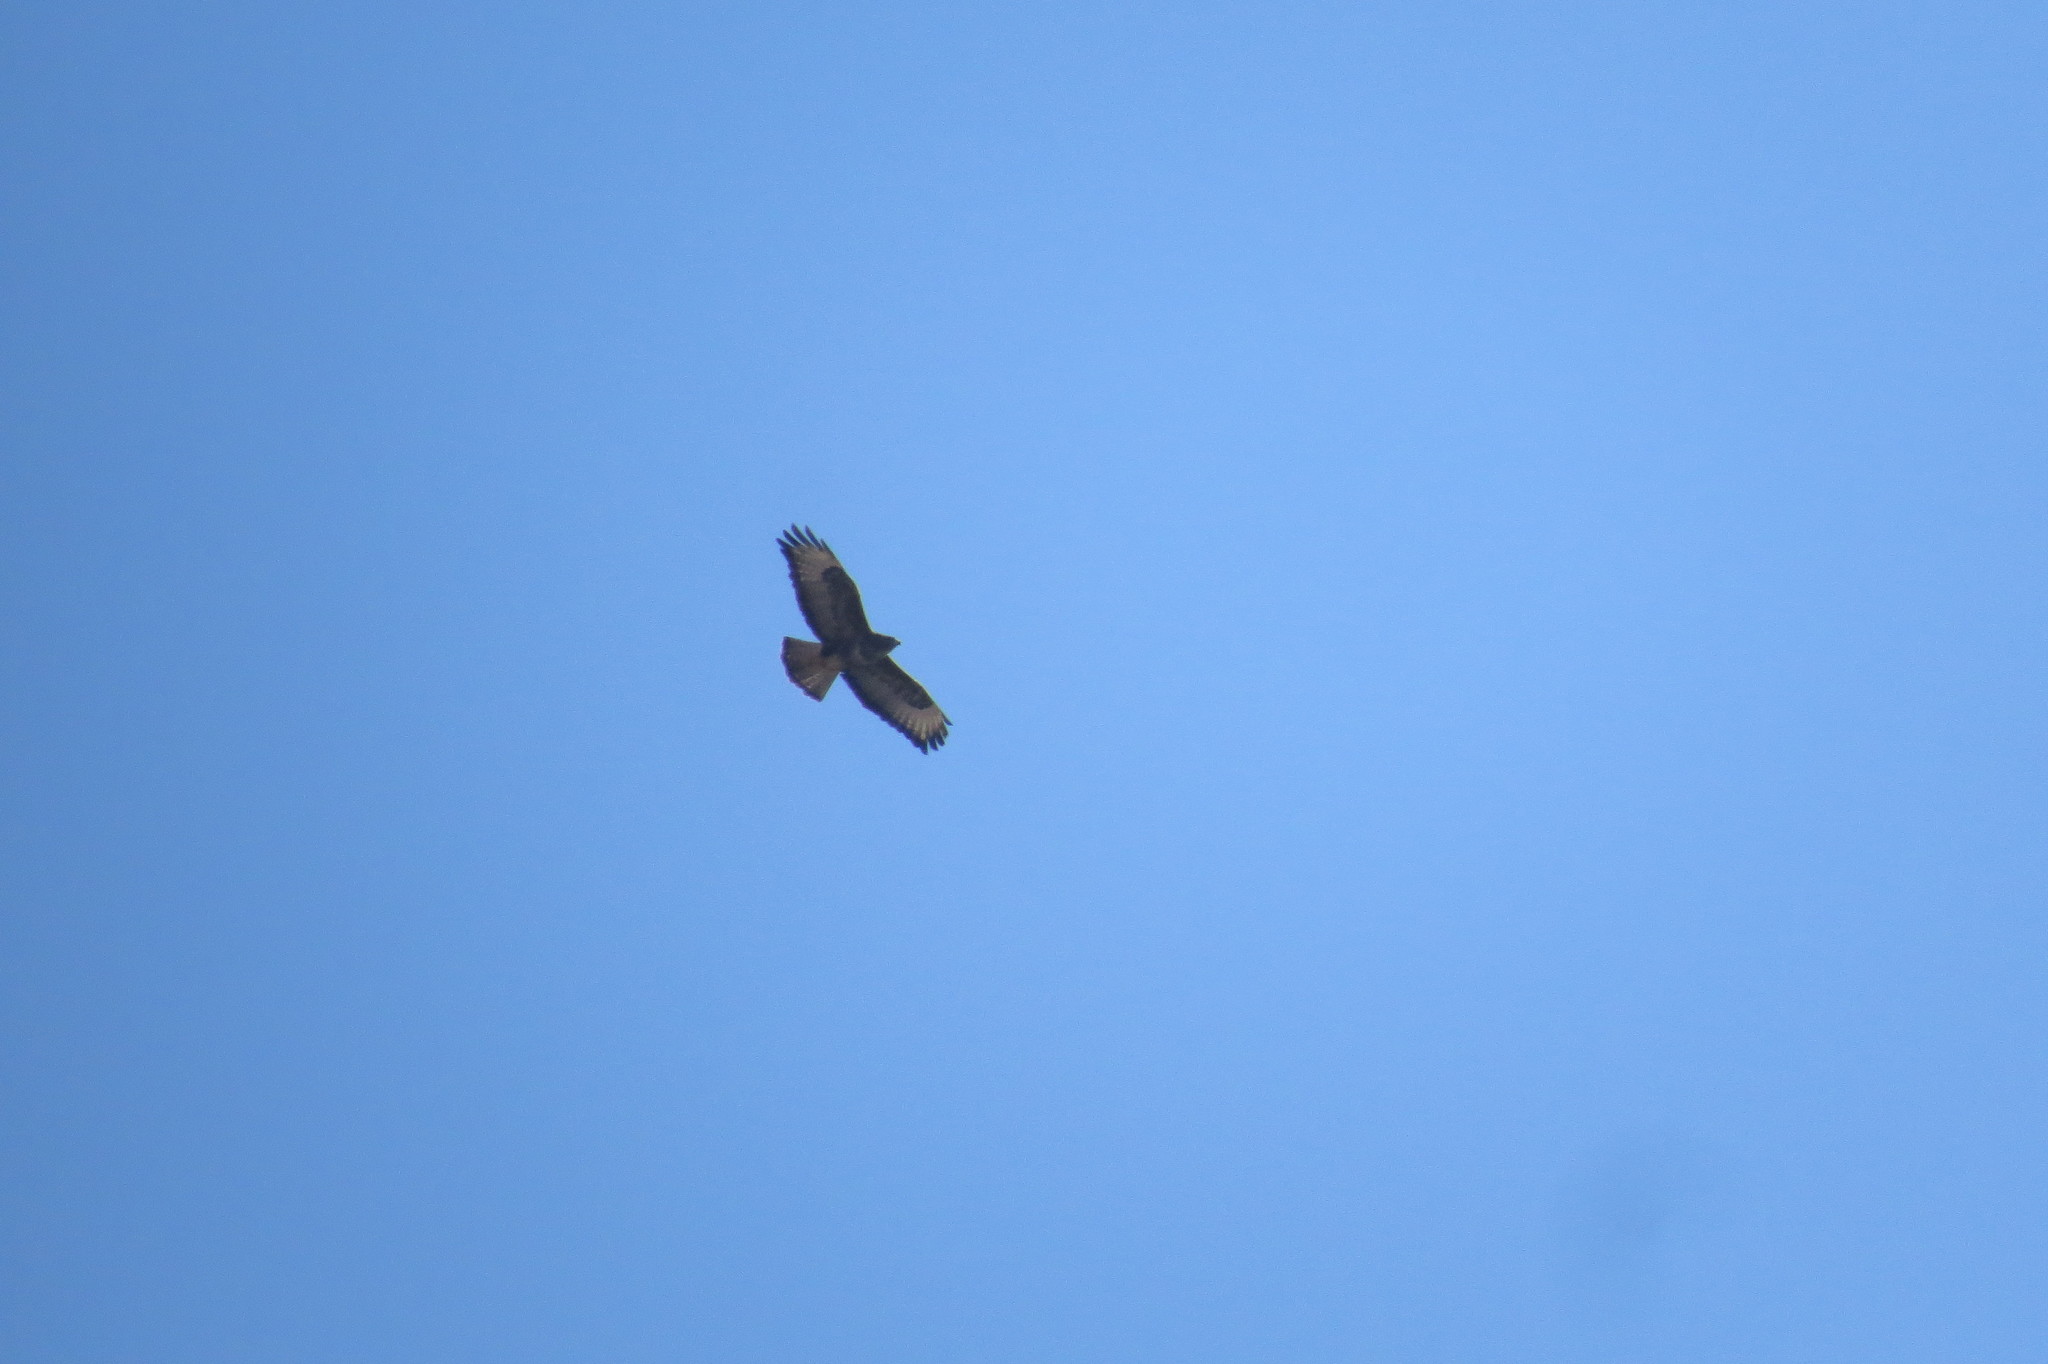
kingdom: Animalia
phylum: Chordata
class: Aves
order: Accipitriformes
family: Accipitridae
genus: Buteo
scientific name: Buteo buteo
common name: Common buzzard
